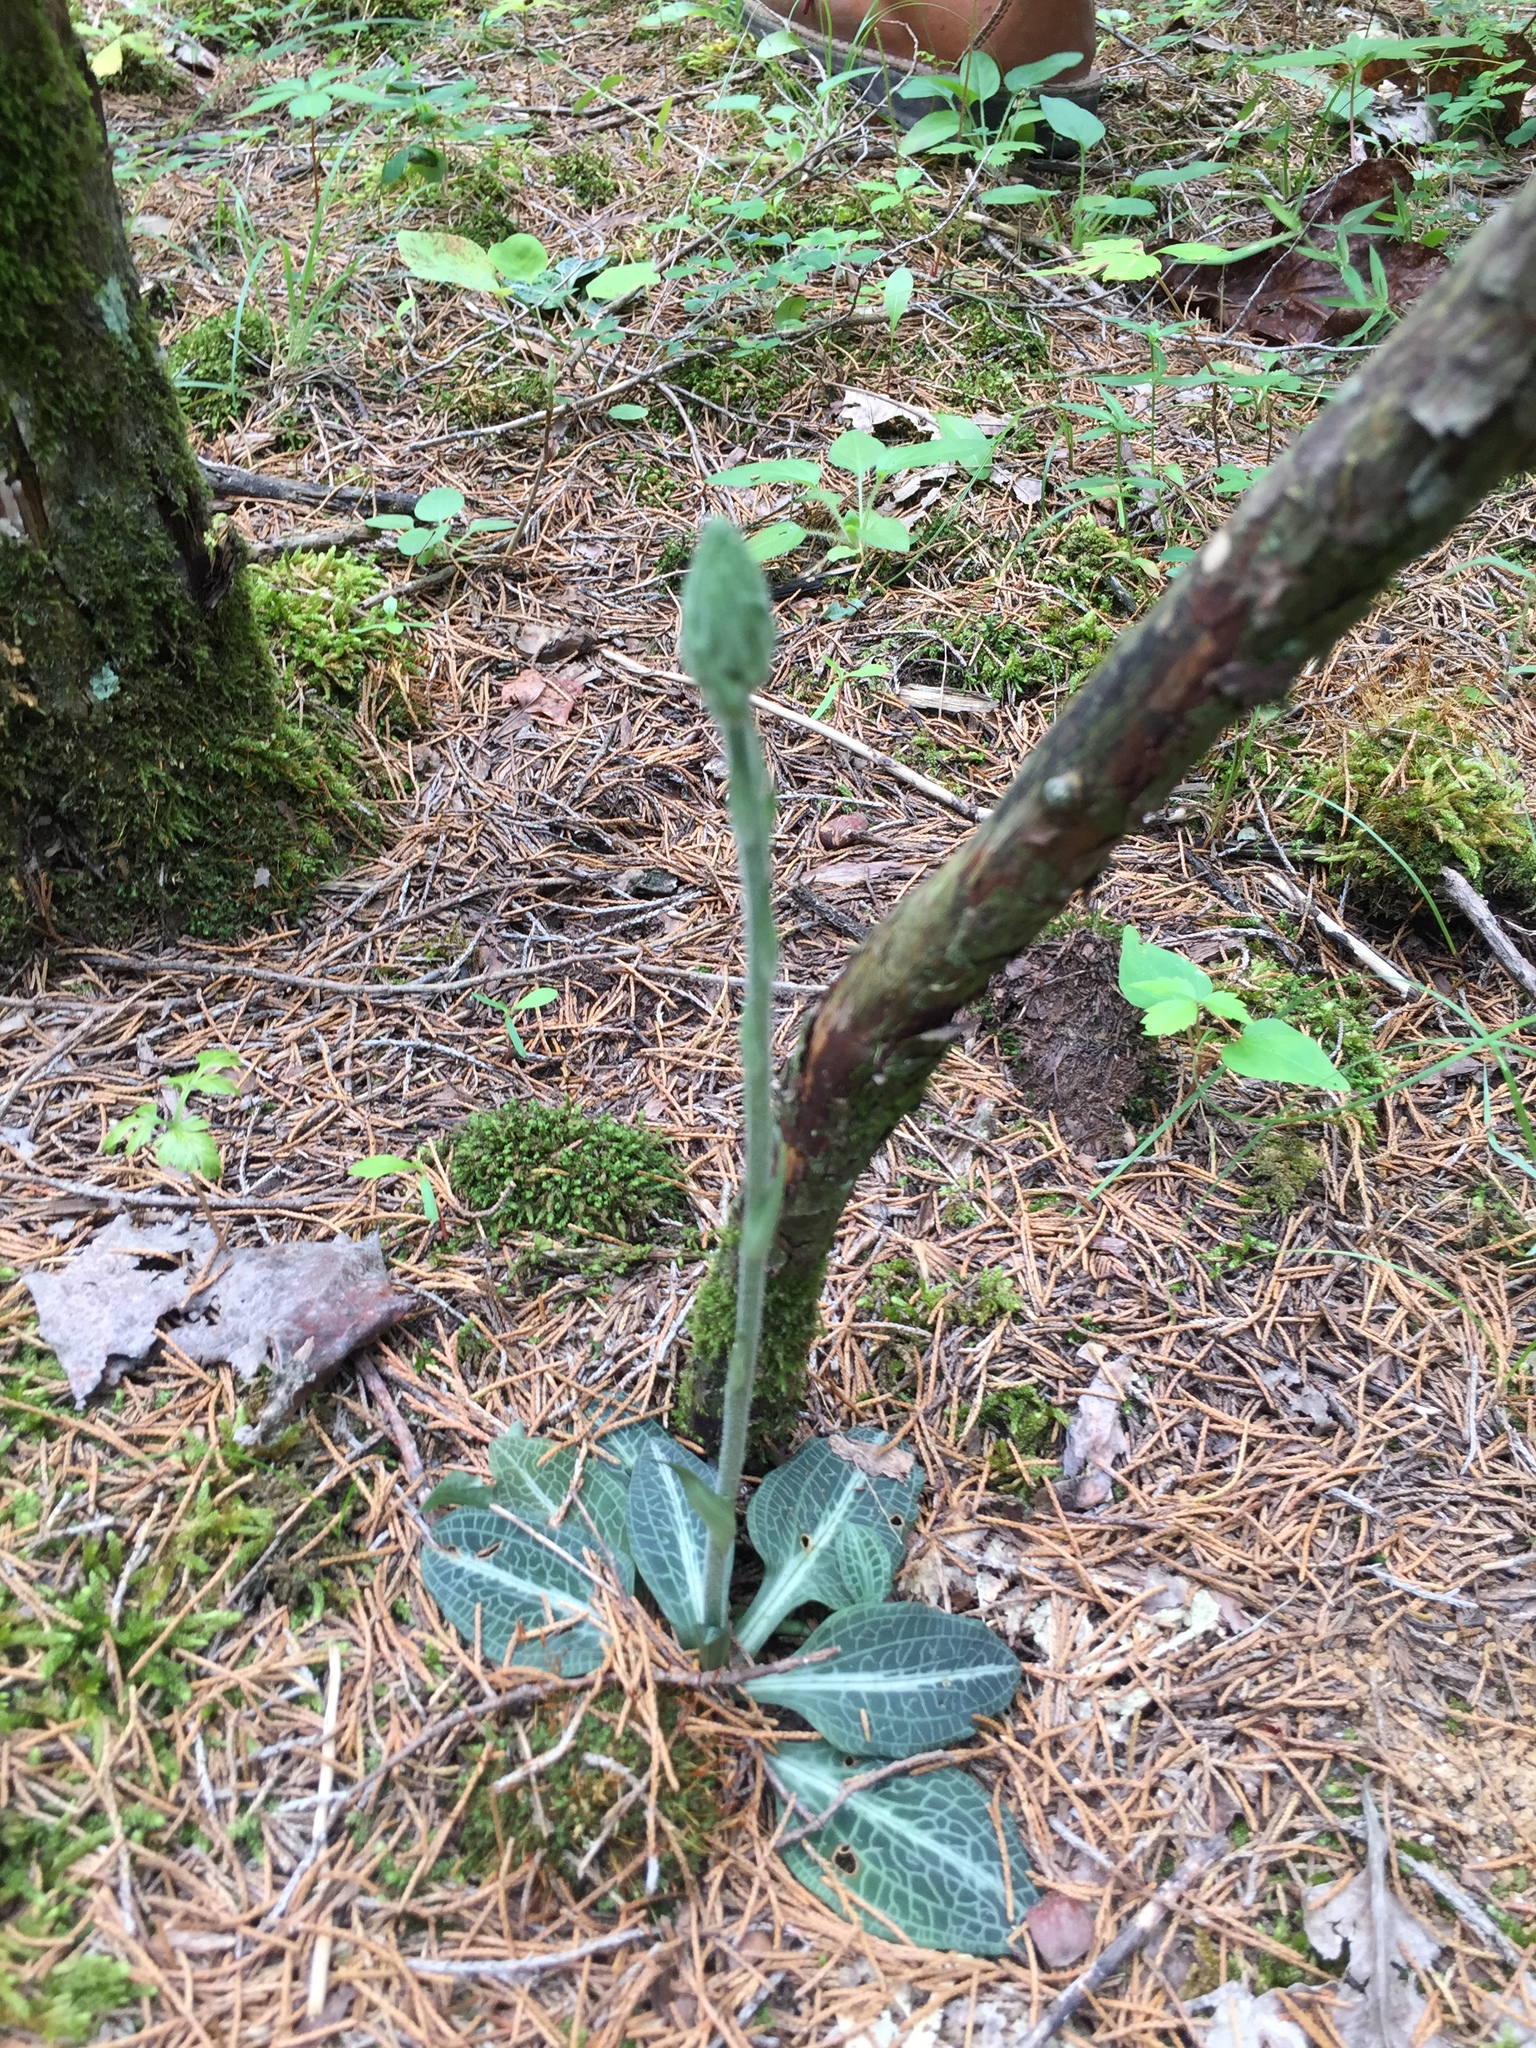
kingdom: Plantae
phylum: Tracheophyta
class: Liliopsida
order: Asparagales
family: Orchidaceae
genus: Goodyera
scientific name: Goodyera pubescens
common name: Downy rattlesnake-plantain
